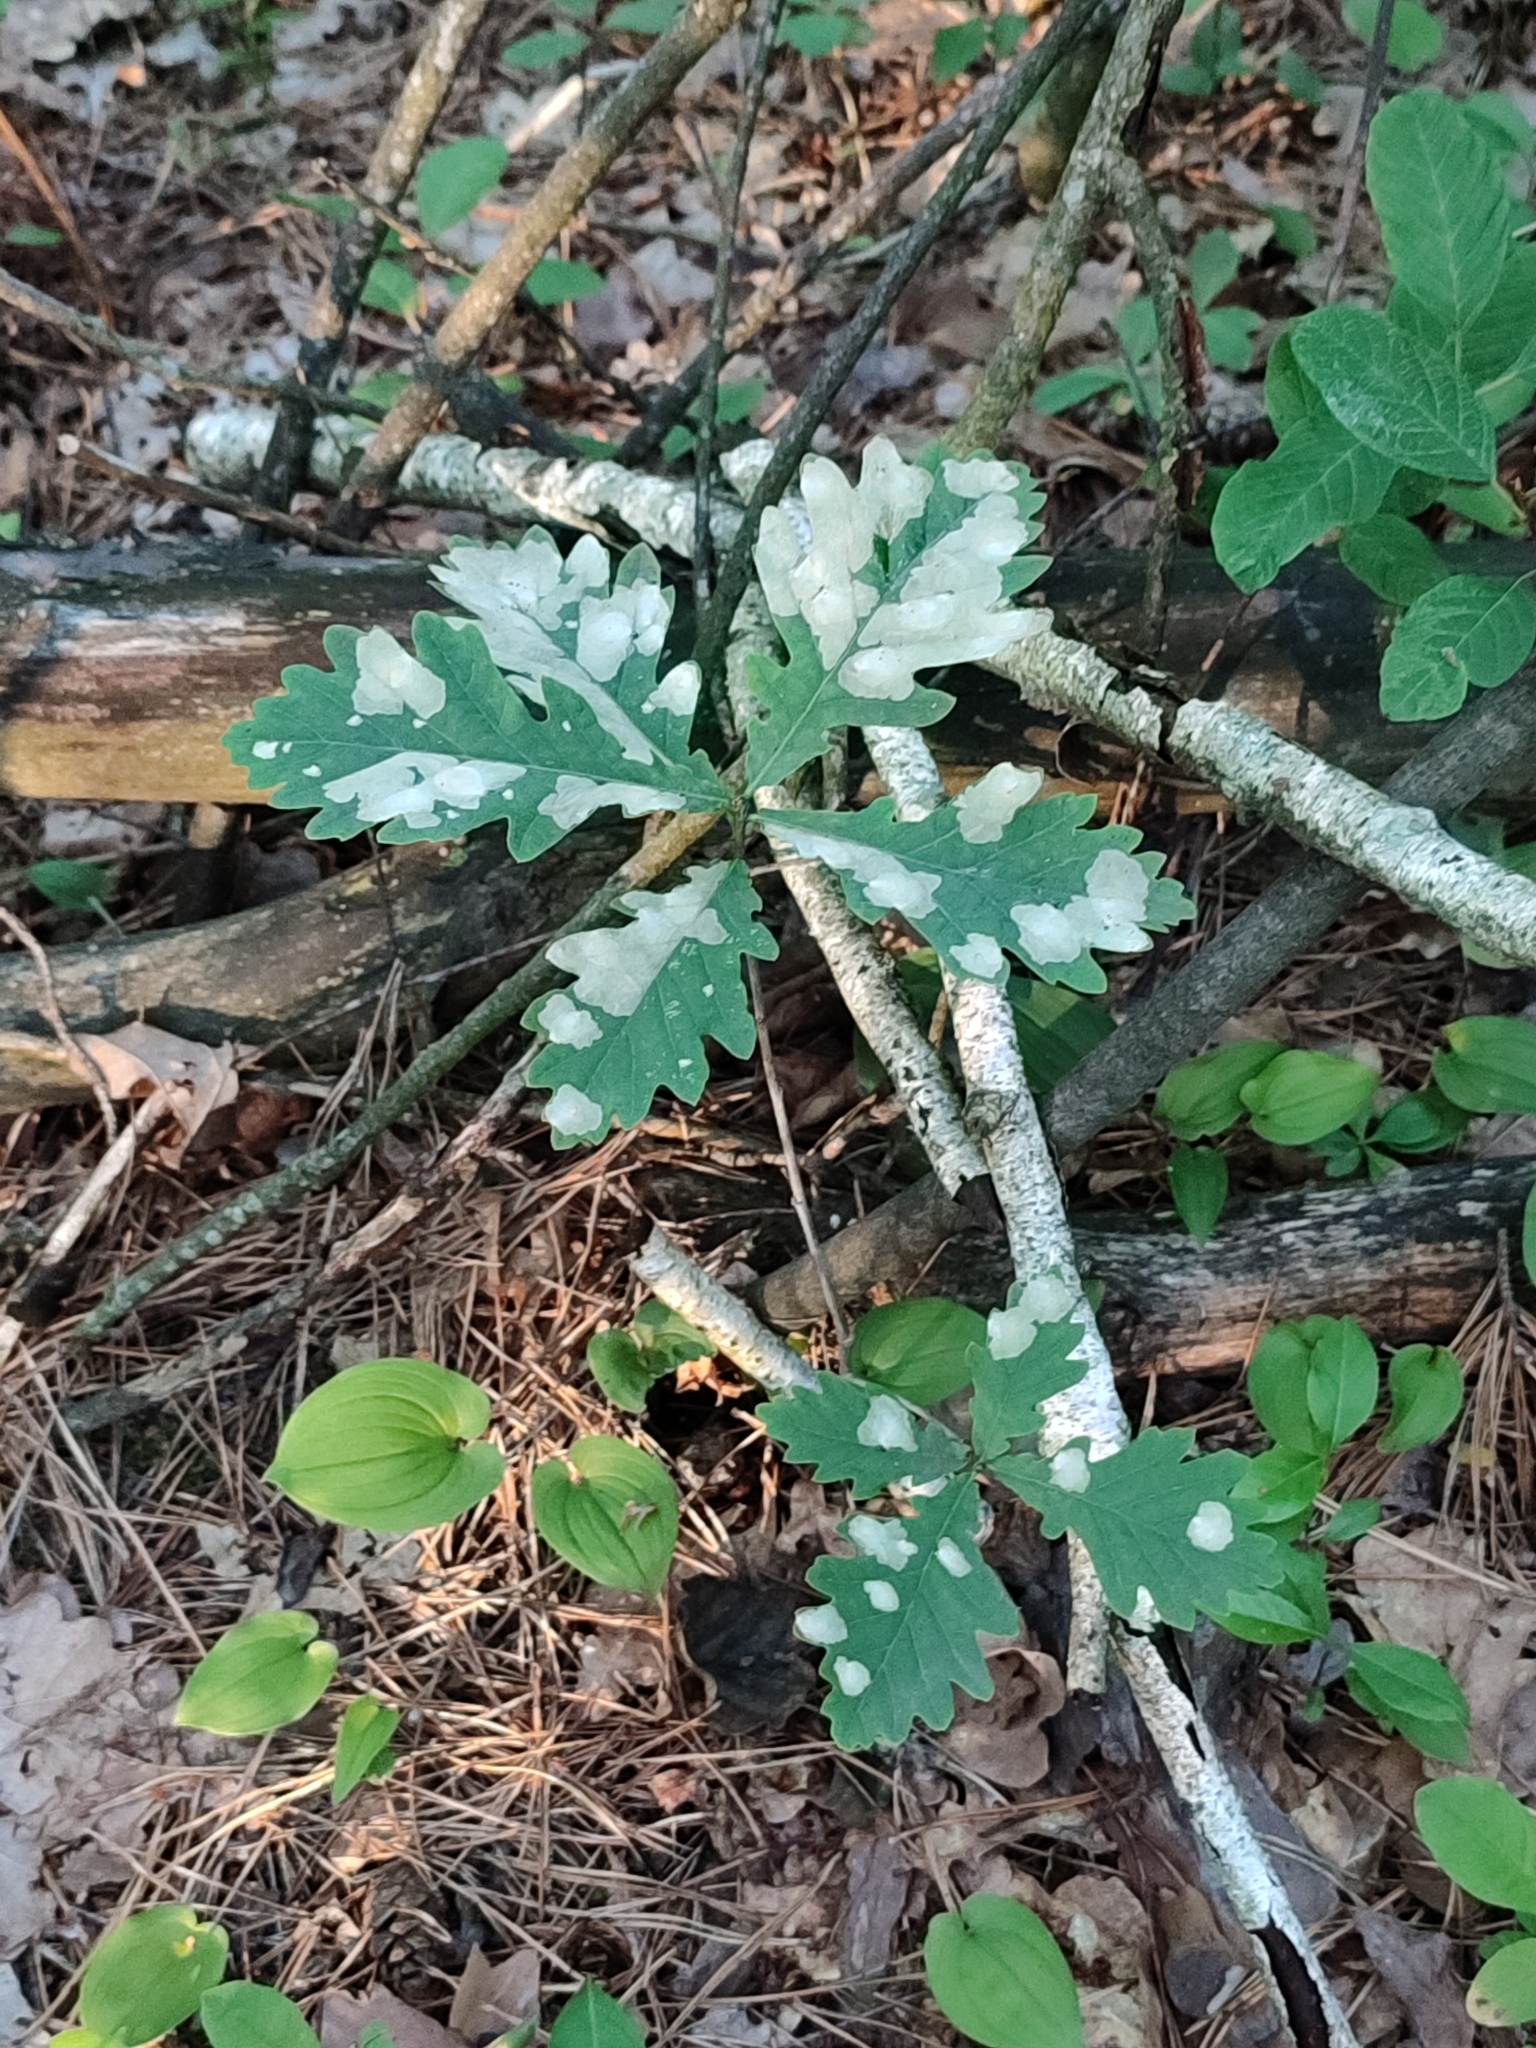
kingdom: Plantae
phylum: Tracheophyta
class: Magnoliopsida
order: Fagales
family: Fagaceae
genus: Quercus
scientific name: Quercus robur
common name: Pedunculate oak
